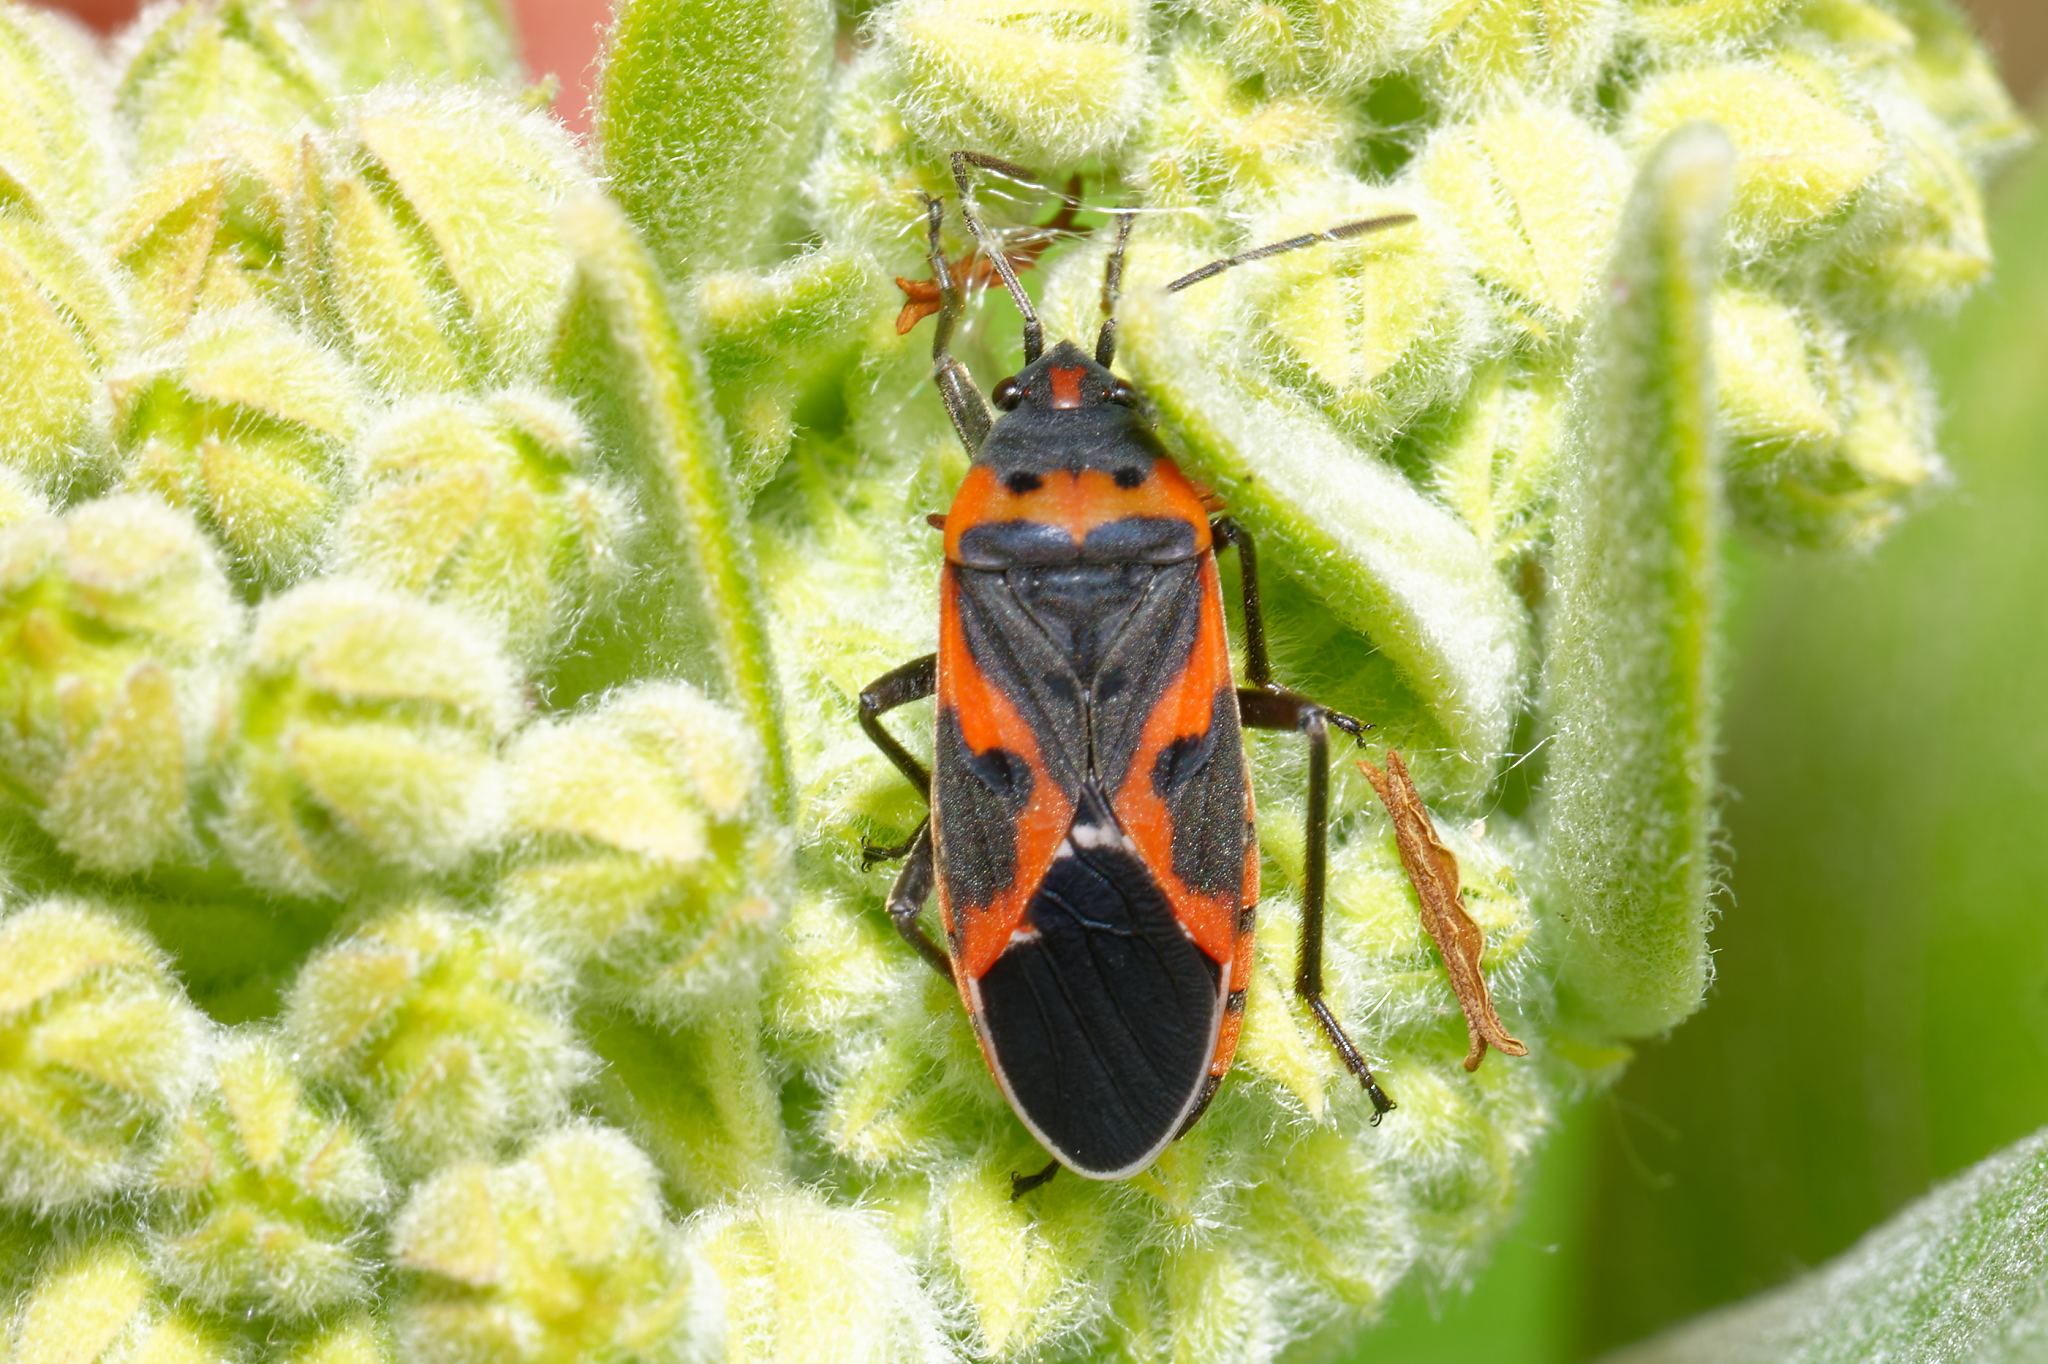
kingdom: Animalia
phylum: Arthropoda
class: Insecta
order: Hemiptera
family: Lygaeidae
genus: Lygaeus
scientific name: Lygaeus kalmii
